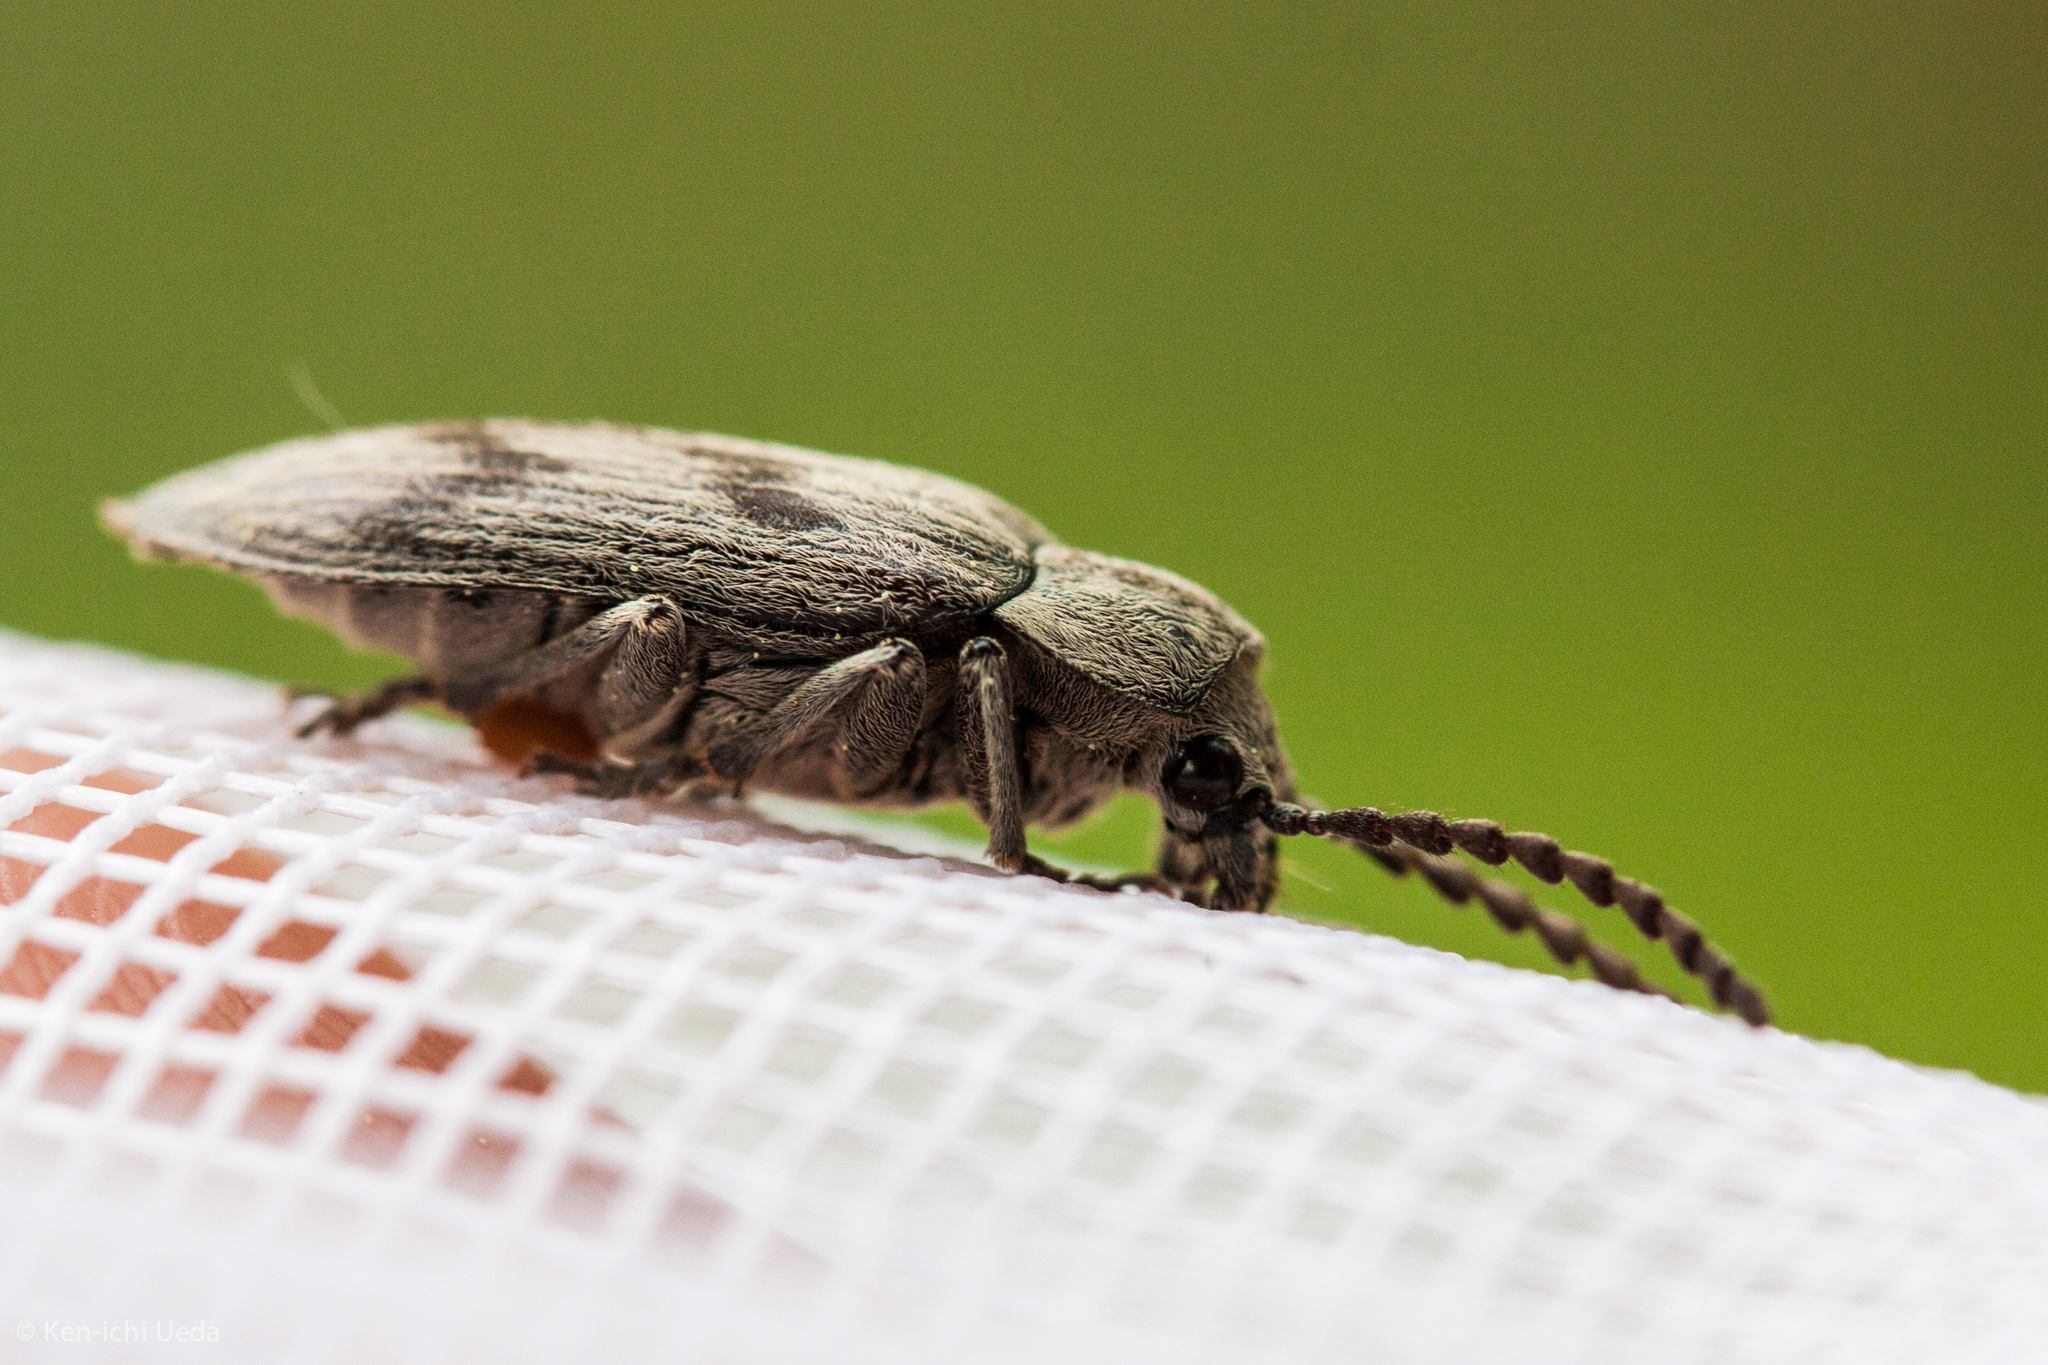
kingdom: Animalia
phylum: Arthropoda
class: Insecta
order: Coleoptera
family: Dascillidae
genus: Dascillus
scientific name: Dascillus davidsoni
